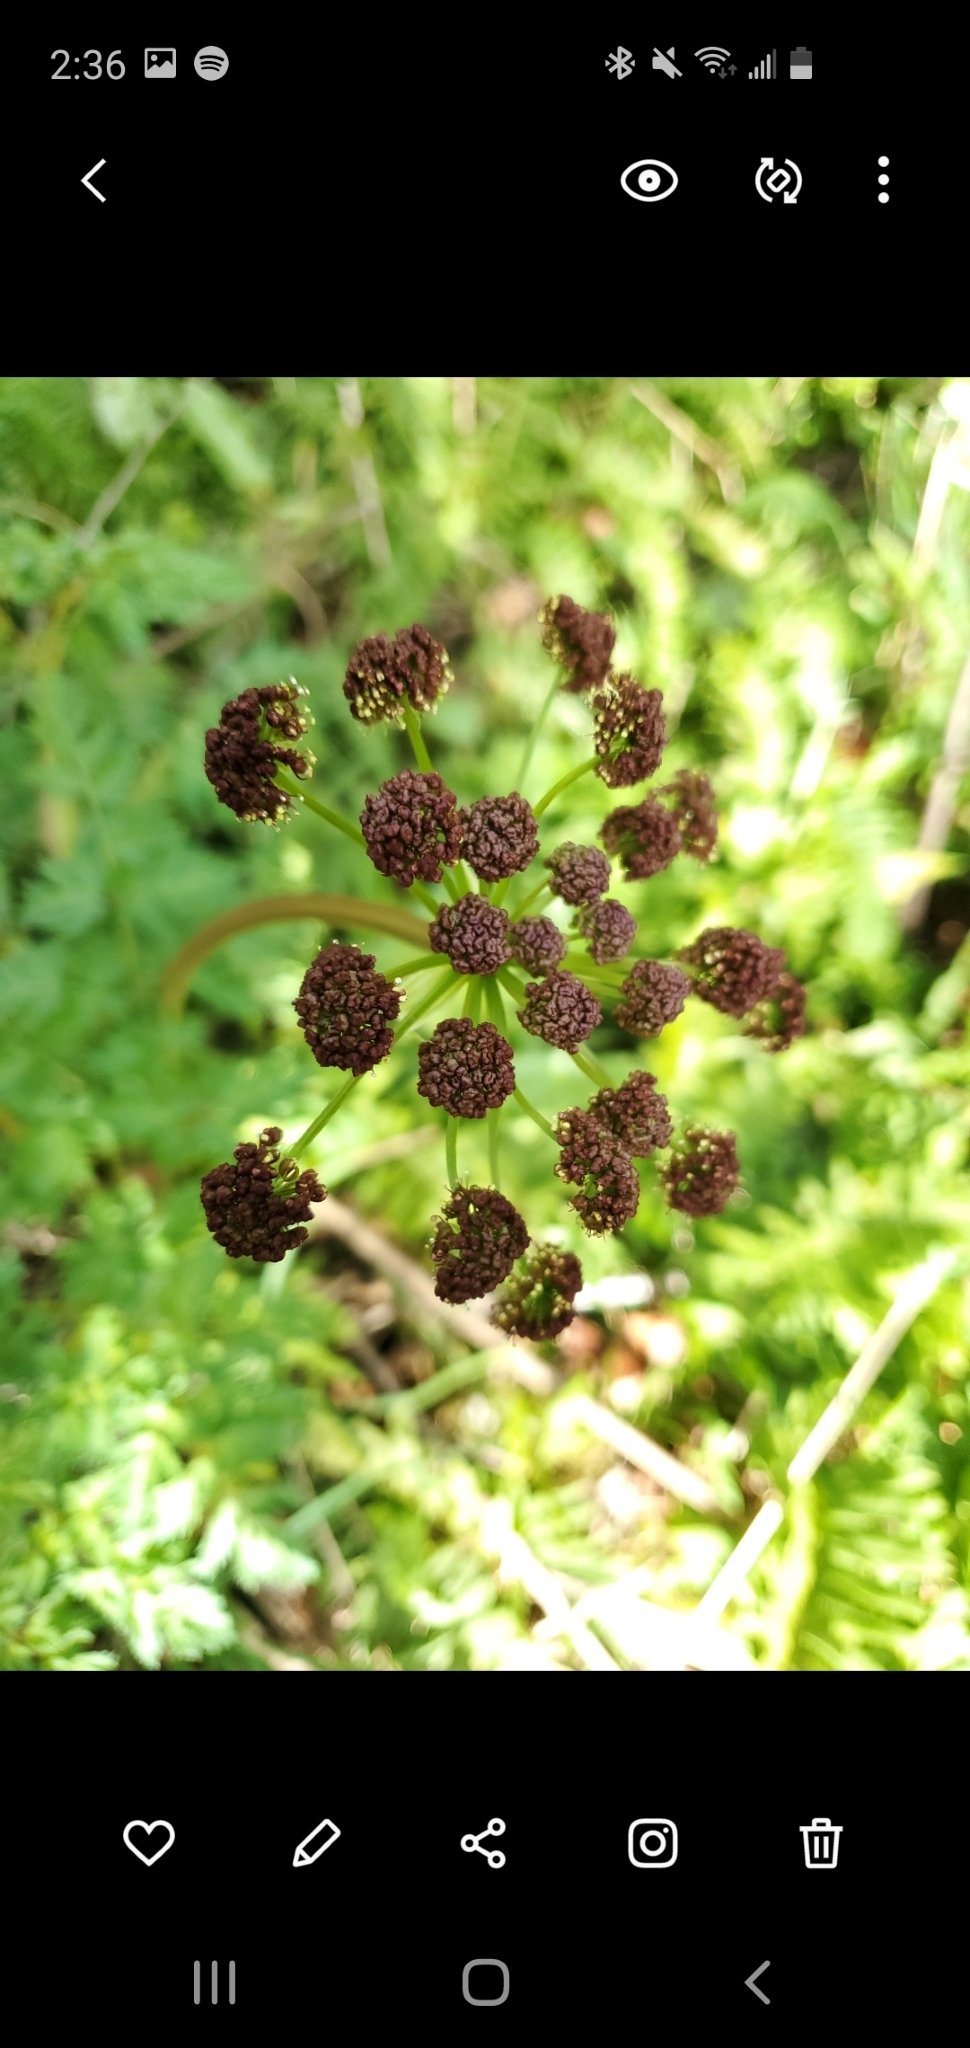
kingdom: Plantae
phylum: Tracheophyta
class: Magnoliopsida
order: Apiales
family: Apiaceae
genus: Lomatium
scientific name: Lomatium dissectum
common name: Lomatium
